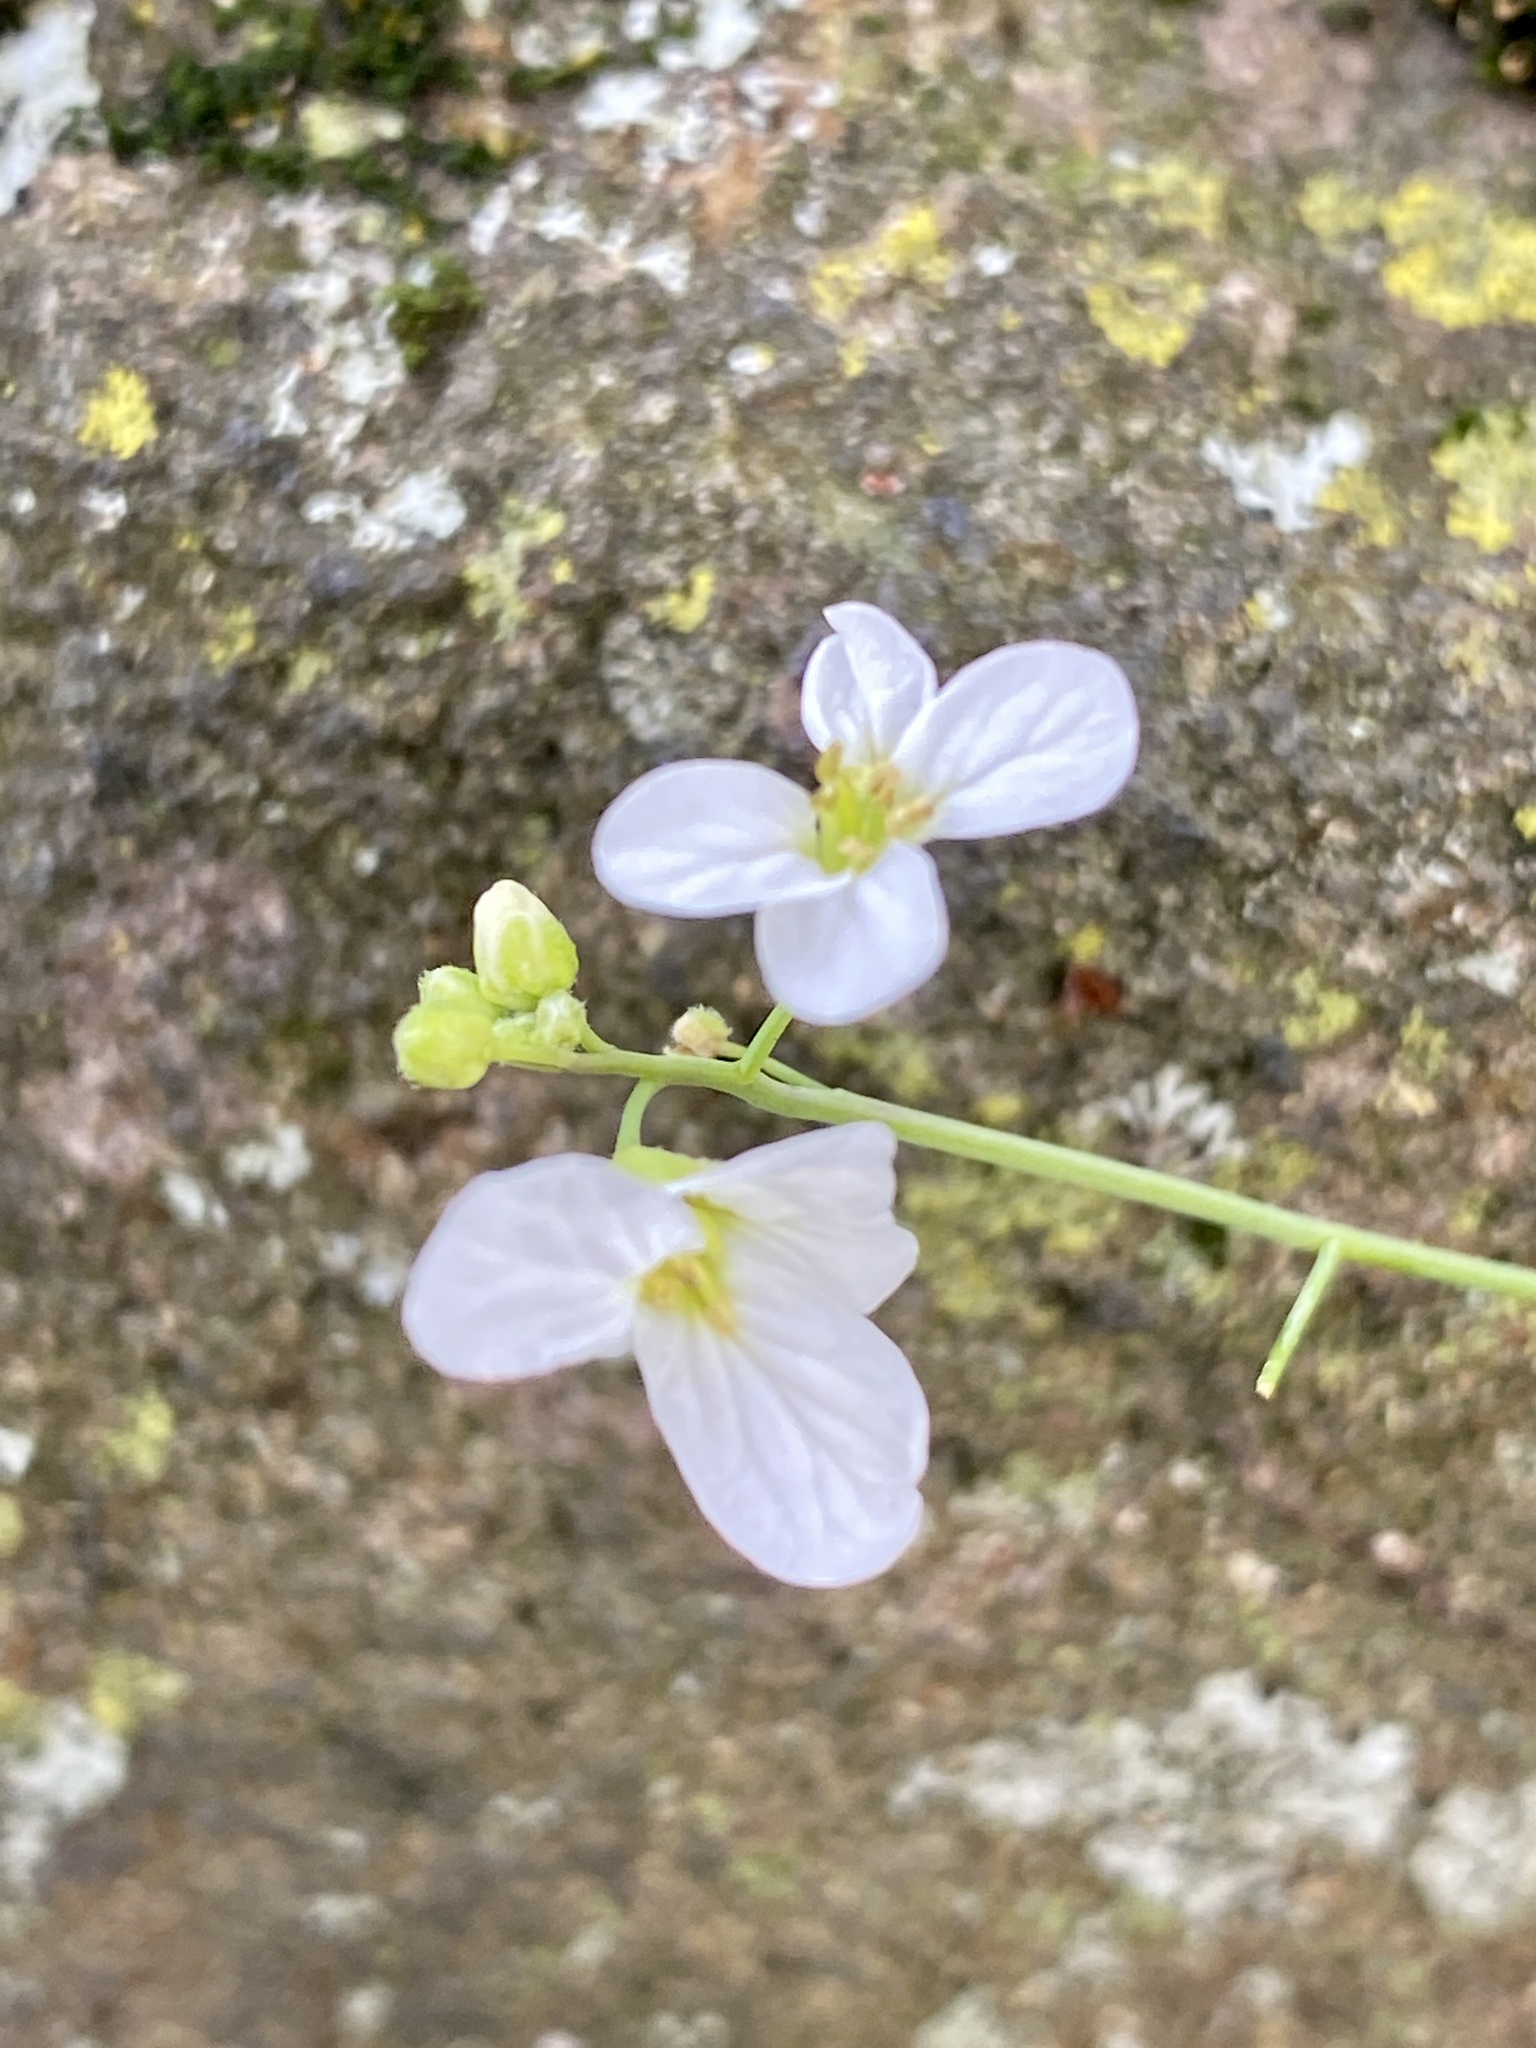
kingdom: Plantae
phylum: Tracheophyta
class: Magnoliopsida
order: Brassicales
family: Brassicaceae
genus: Arabidopsis
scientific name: Arabidopsis lyrata
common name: Lyrate rockcress
